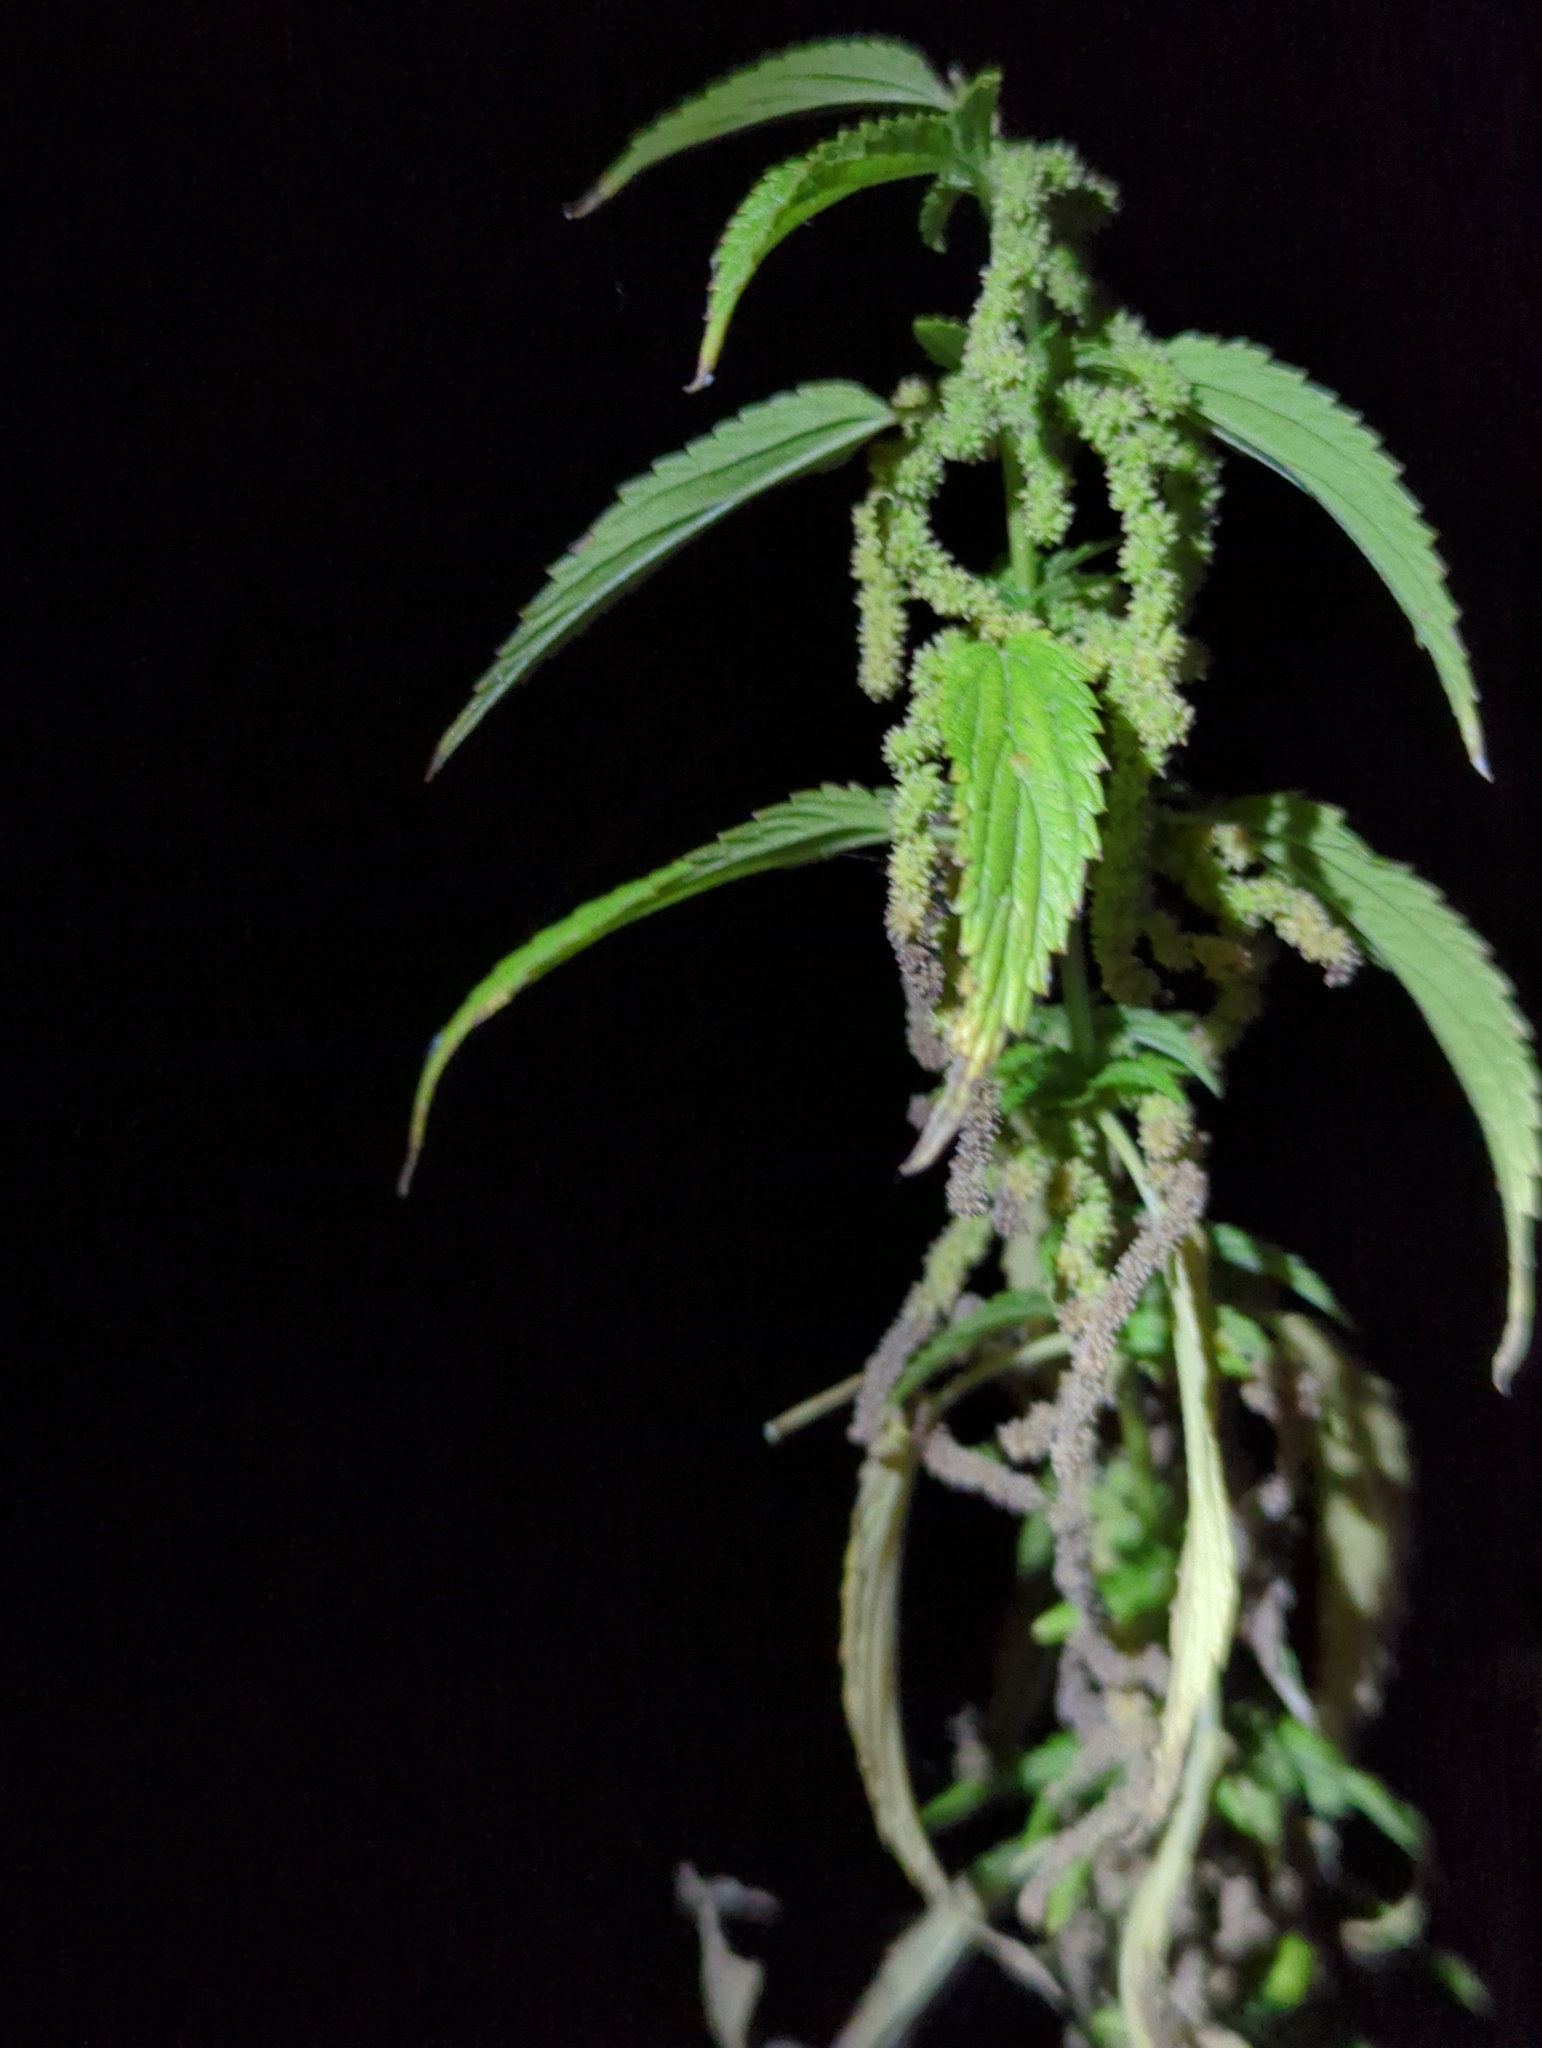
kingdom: Plantae
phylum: Tracheophyta
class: Magnoliopsida
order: Rosales
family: Urticaceae
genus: Urtica
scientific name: Urtica gracilis
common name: Slender stinging nettle
